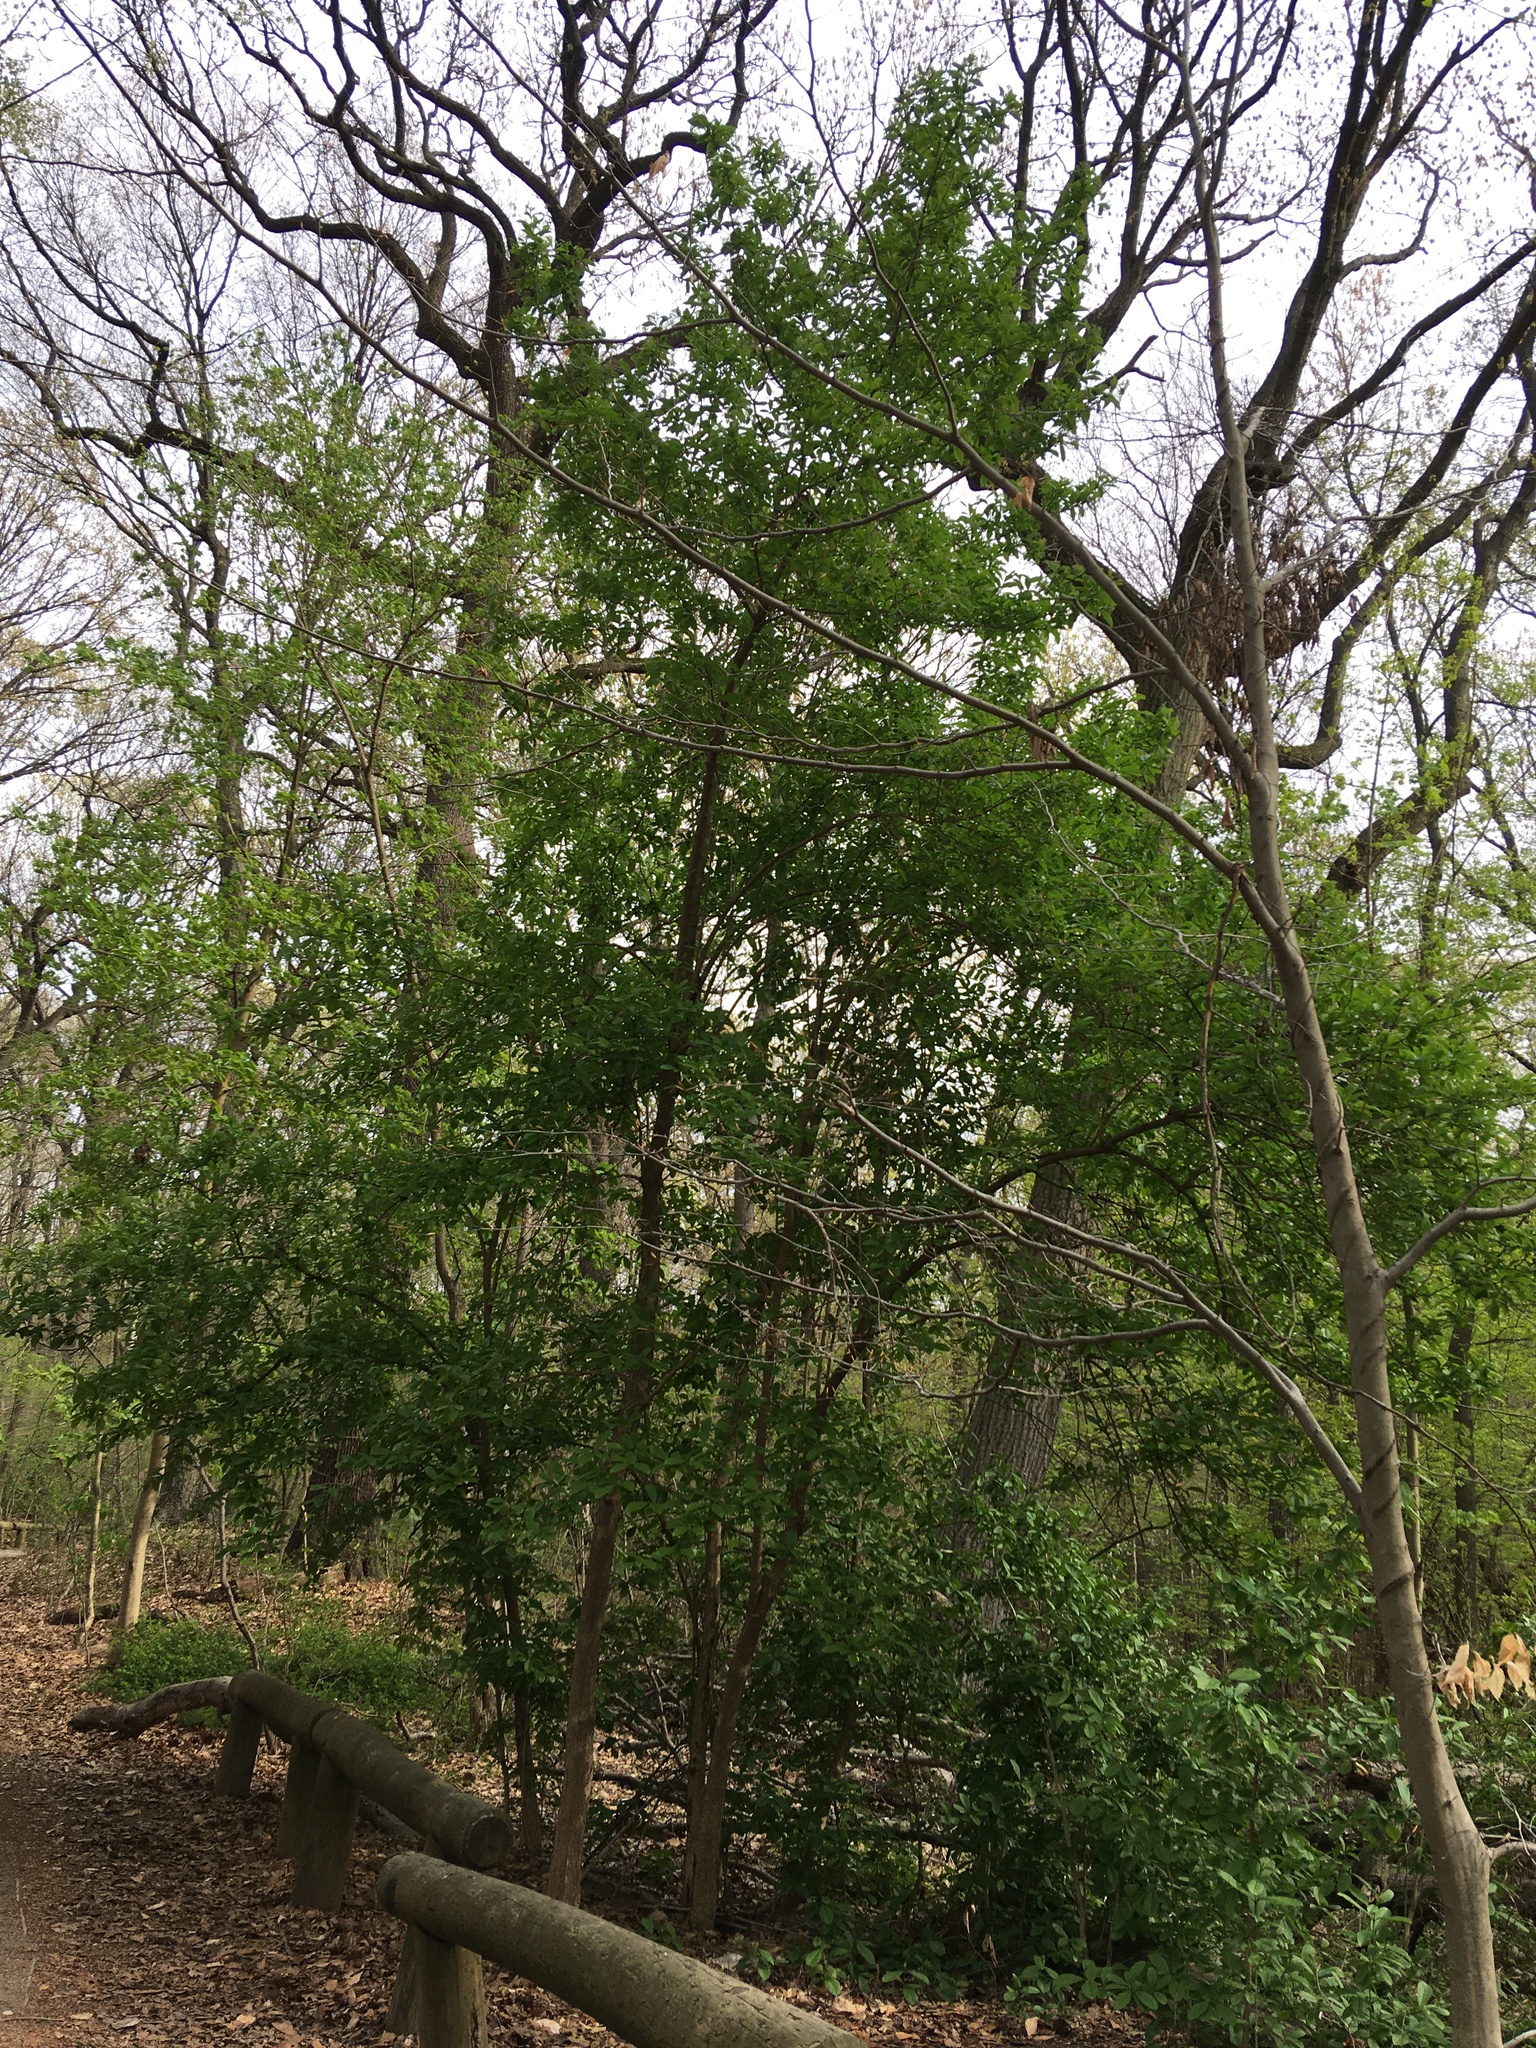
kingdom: Plantae
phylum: Tracheophyta
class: Magnoliopsida
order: Dipsacales
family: Viburnaceae
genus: Viburnum
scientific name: Viburnum sieboldii
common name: Siebold's arrowwood
